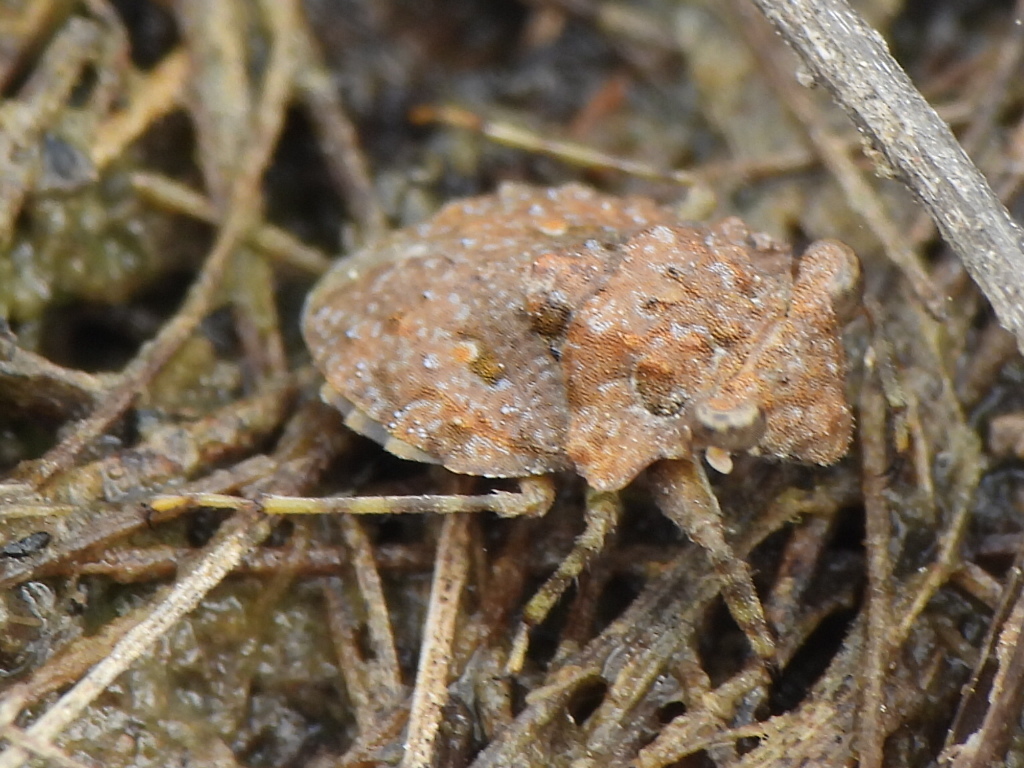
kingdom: Animalia
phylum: Arthropoda
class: Insecta
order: Hemiptera
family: Gelastocoridae
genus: Gelastocoris
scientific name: Gelastocoris oculatus
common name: Toad bug
